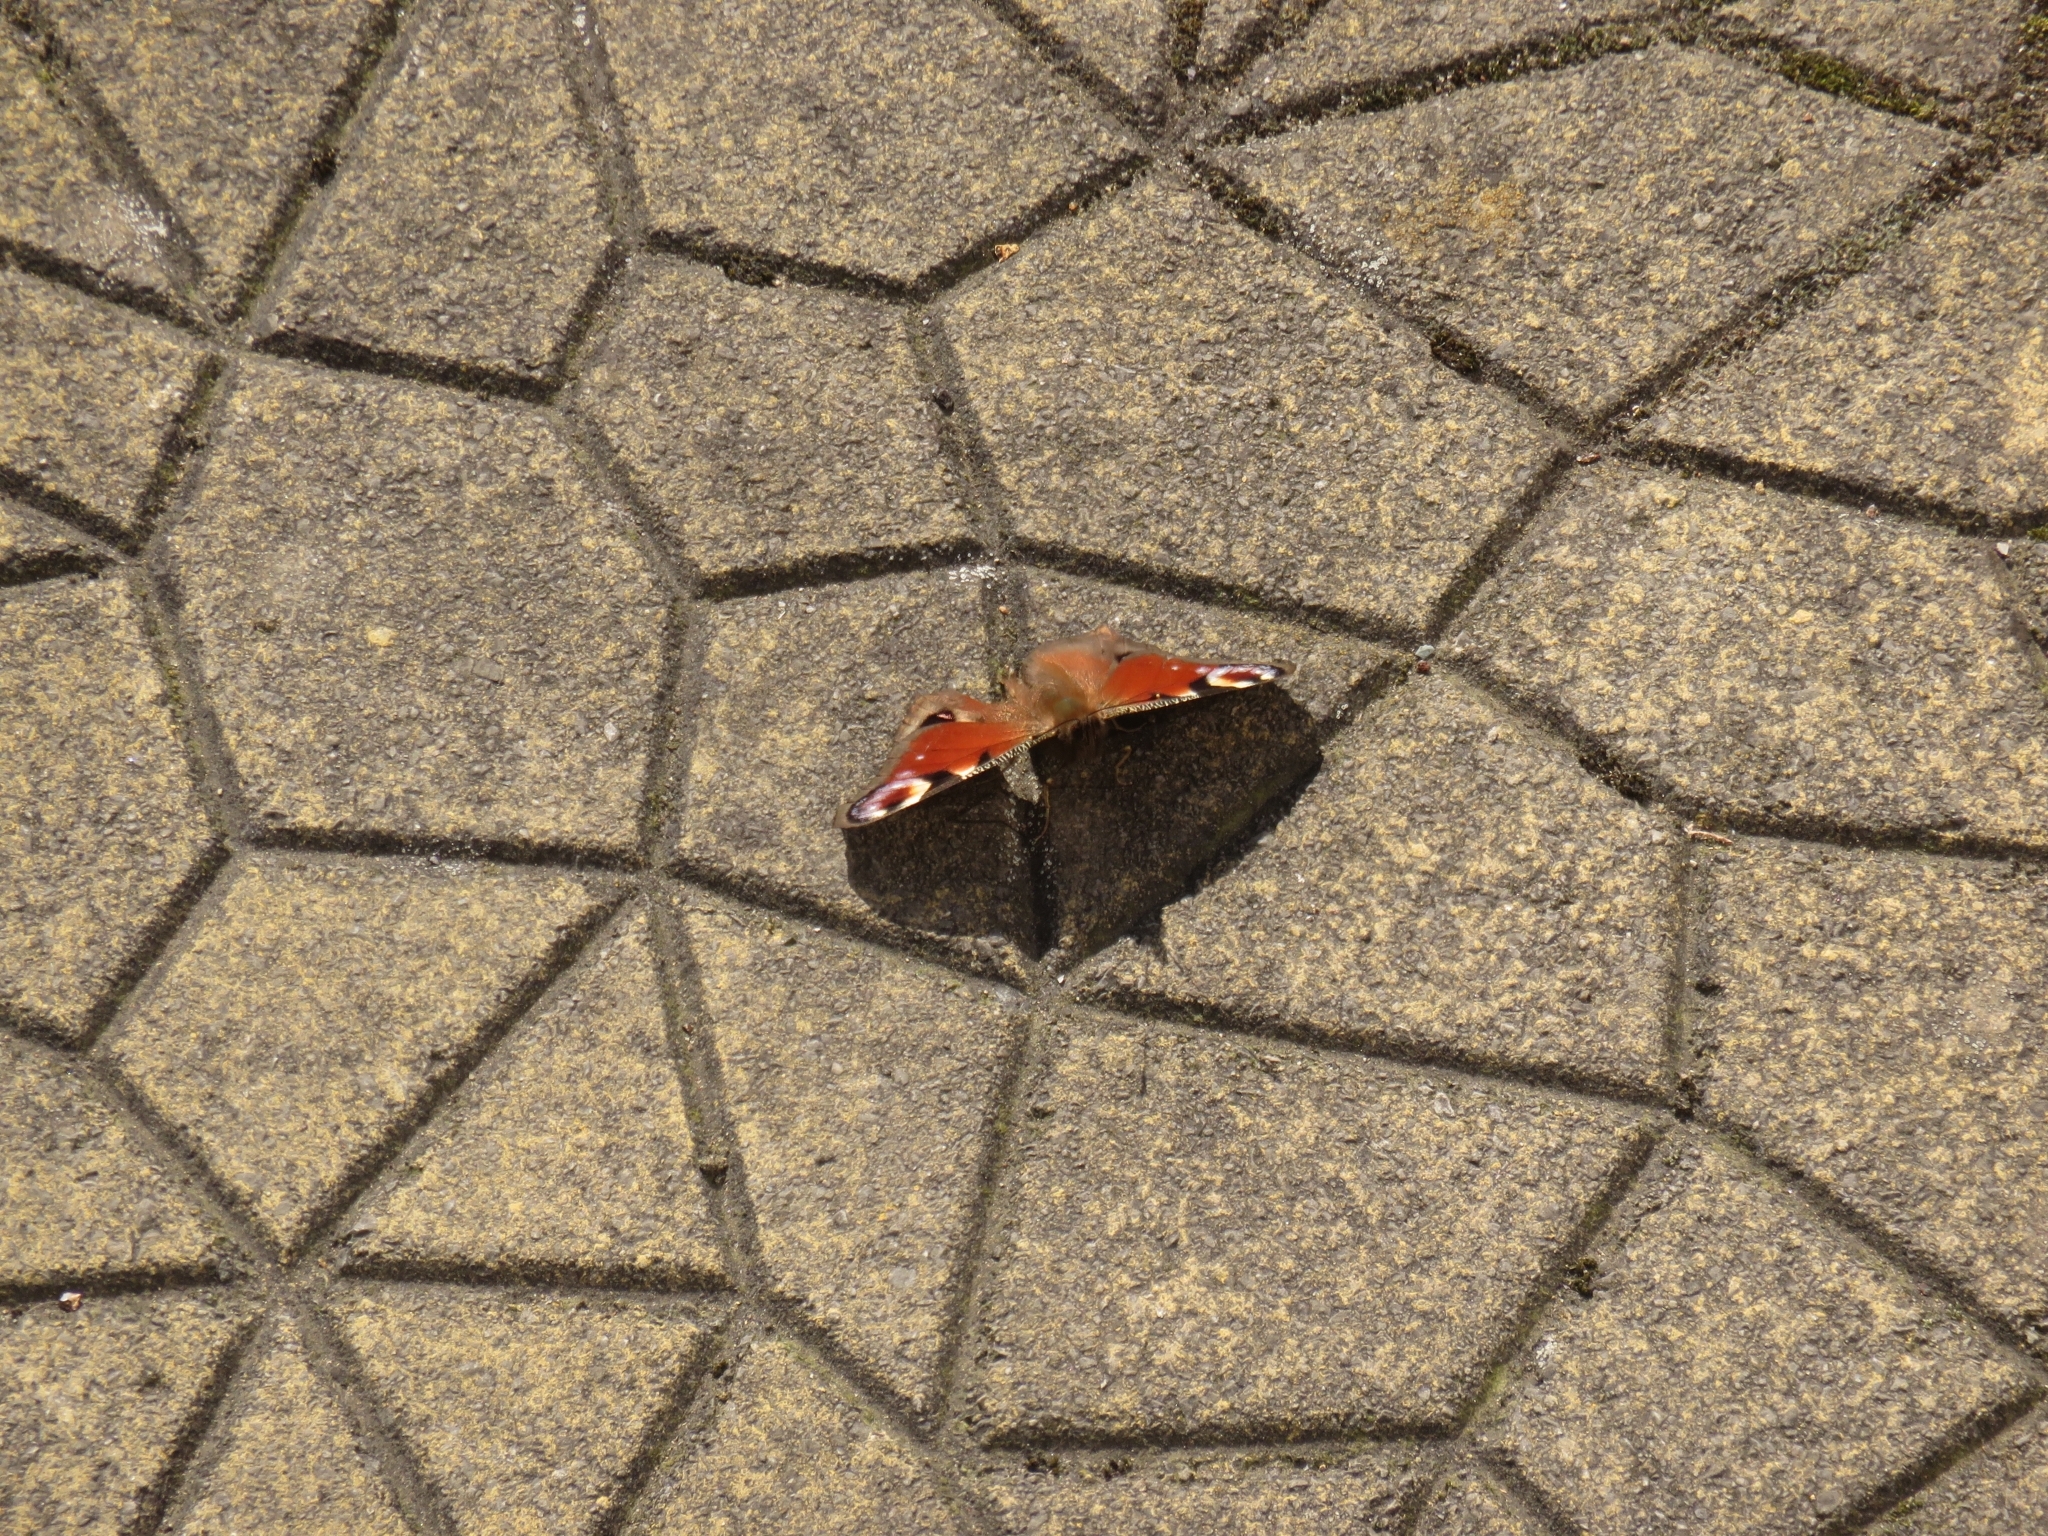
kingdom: Animalia
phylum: Arthropoda
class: Insecta
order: Lepidoptera
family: Nymphalidae
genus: Aglais
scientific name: Aglais io
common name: Peacock
